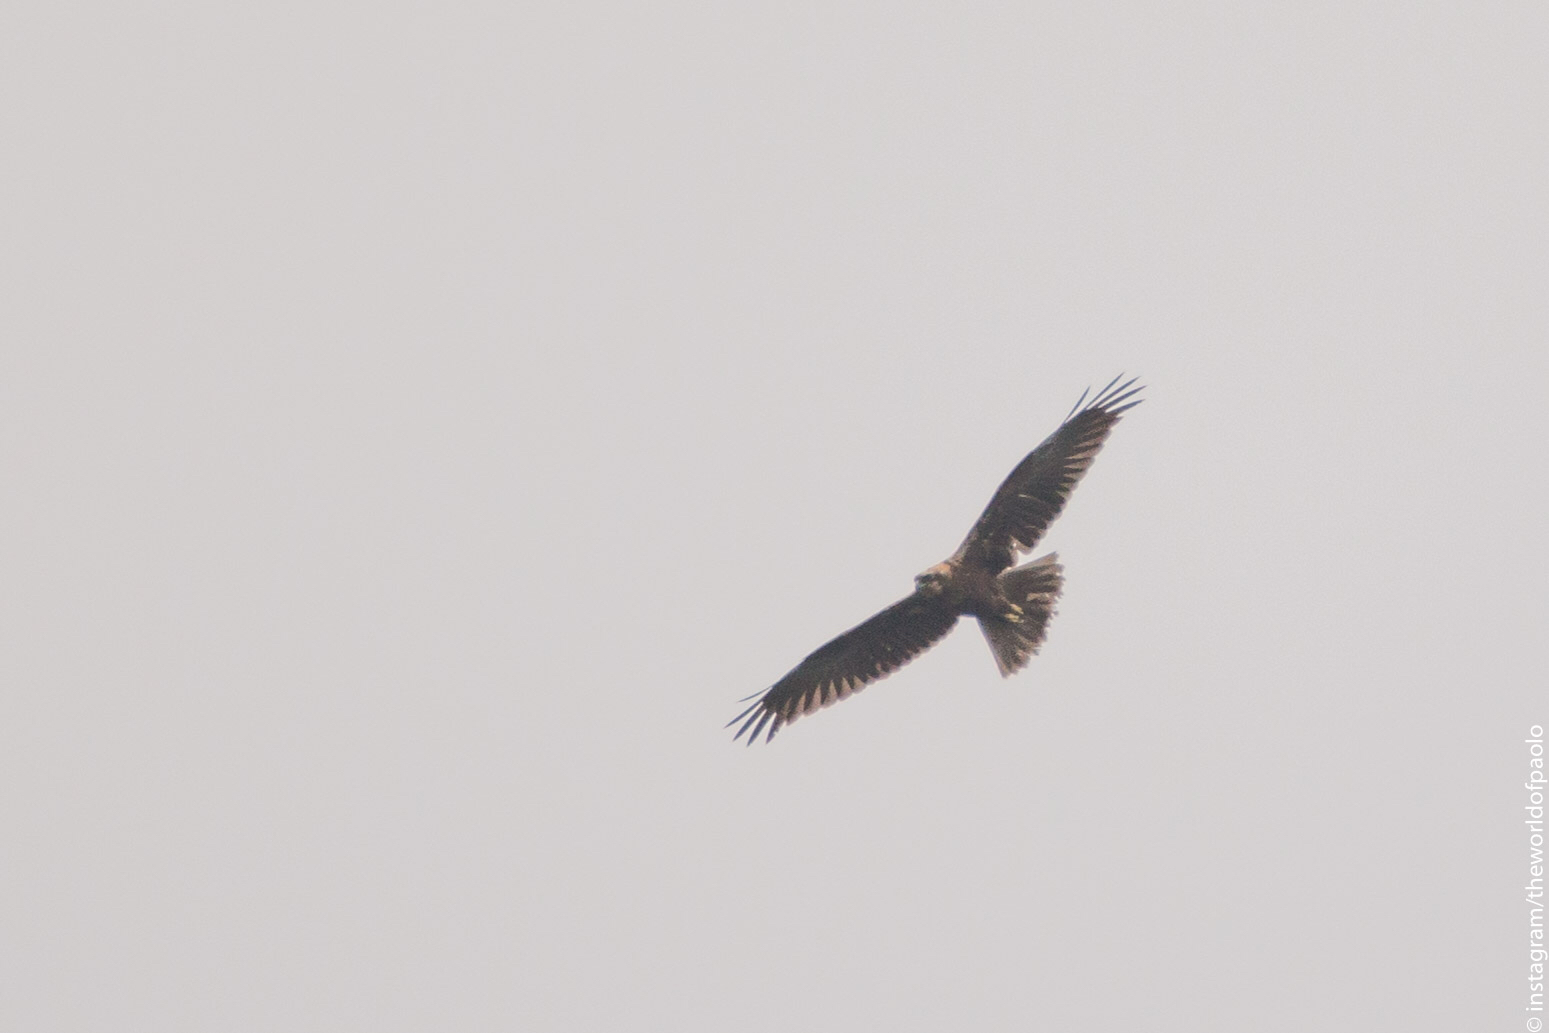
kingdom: Animalia
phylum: Chordata
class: Aves
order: Accipitriformes
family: Accipitridae
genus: Circus
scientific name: Circus aeruginosus
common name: Western marsh harrier
